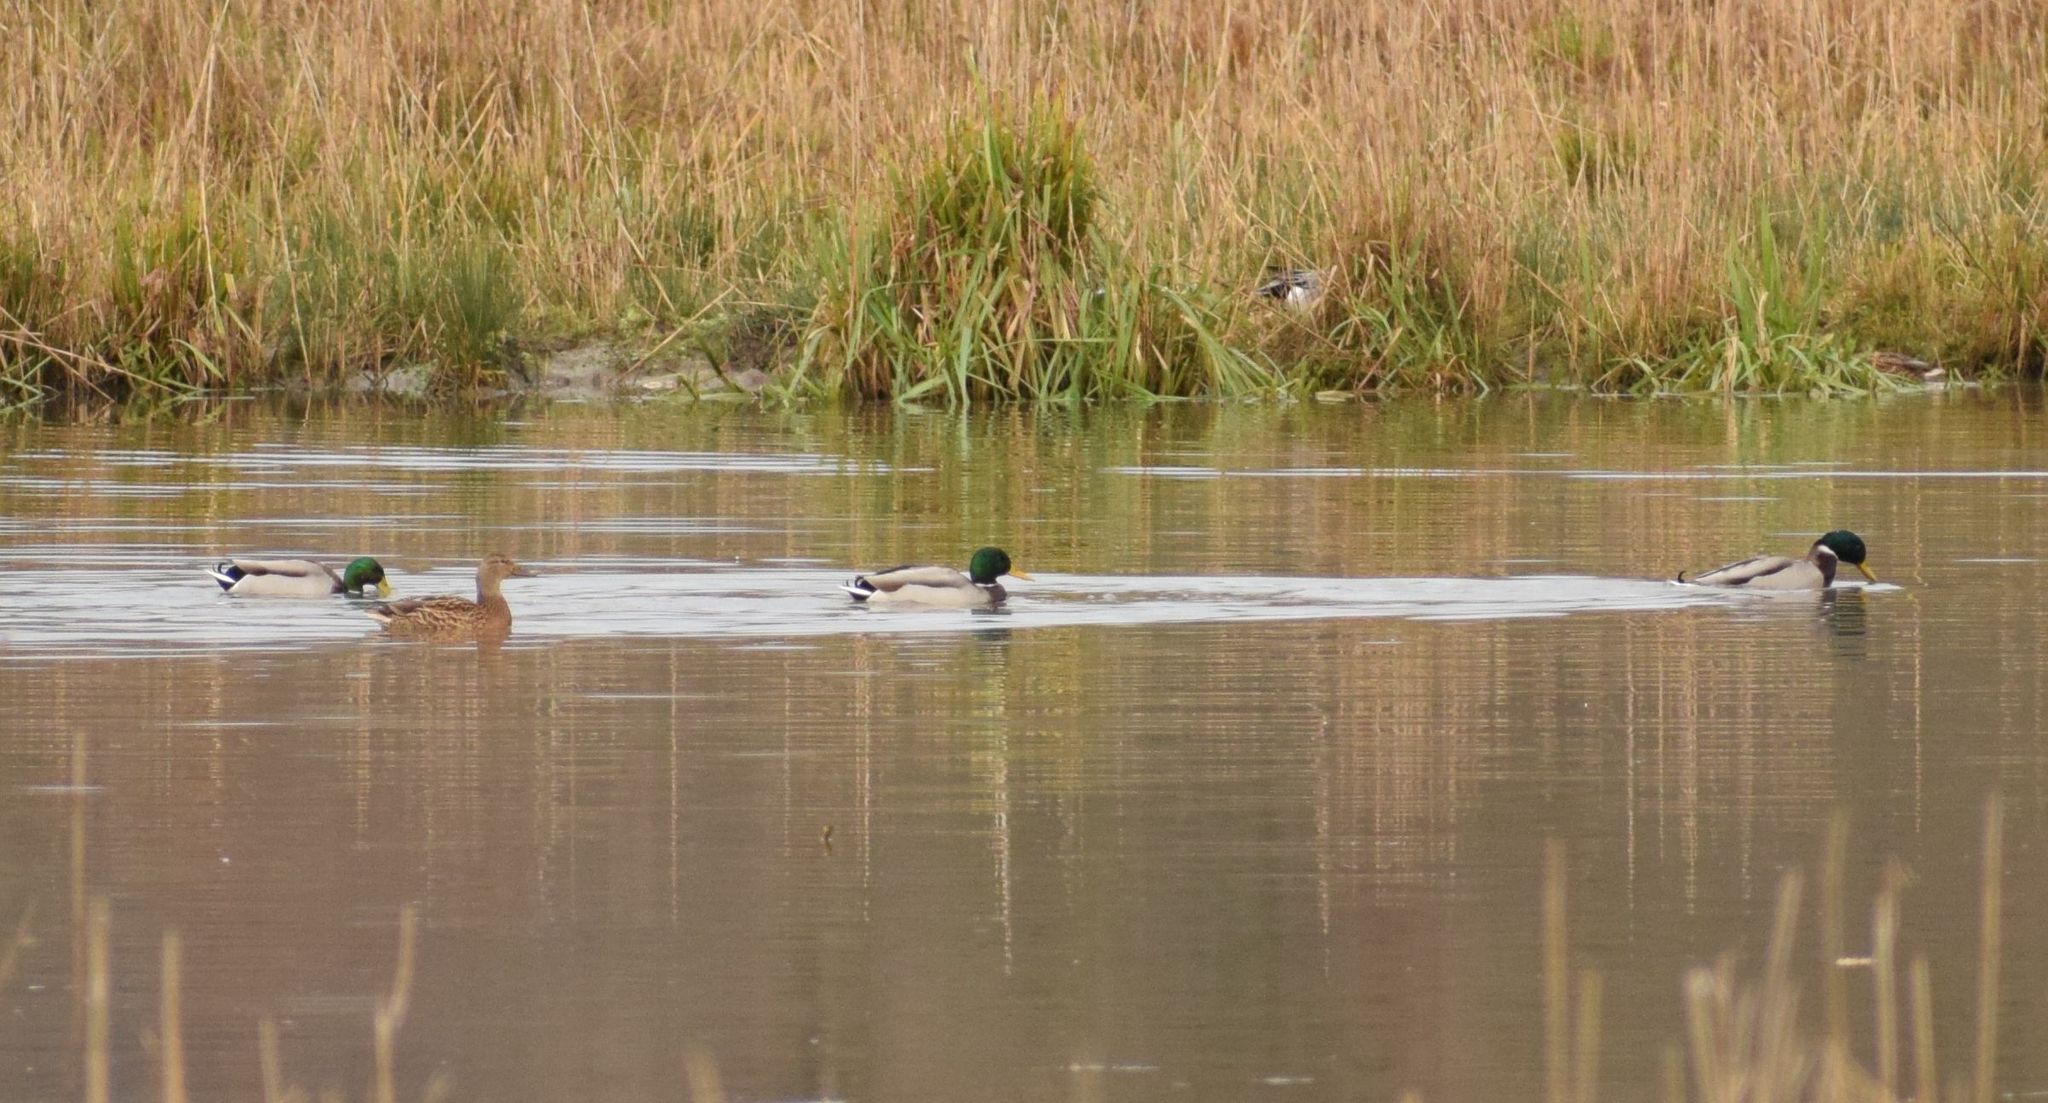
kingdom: Animalia
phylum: Chordata
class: Aves
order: Anseriformes
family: Anatidae
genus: Anas
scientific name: Anas platyrhynchos
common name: Mallard
